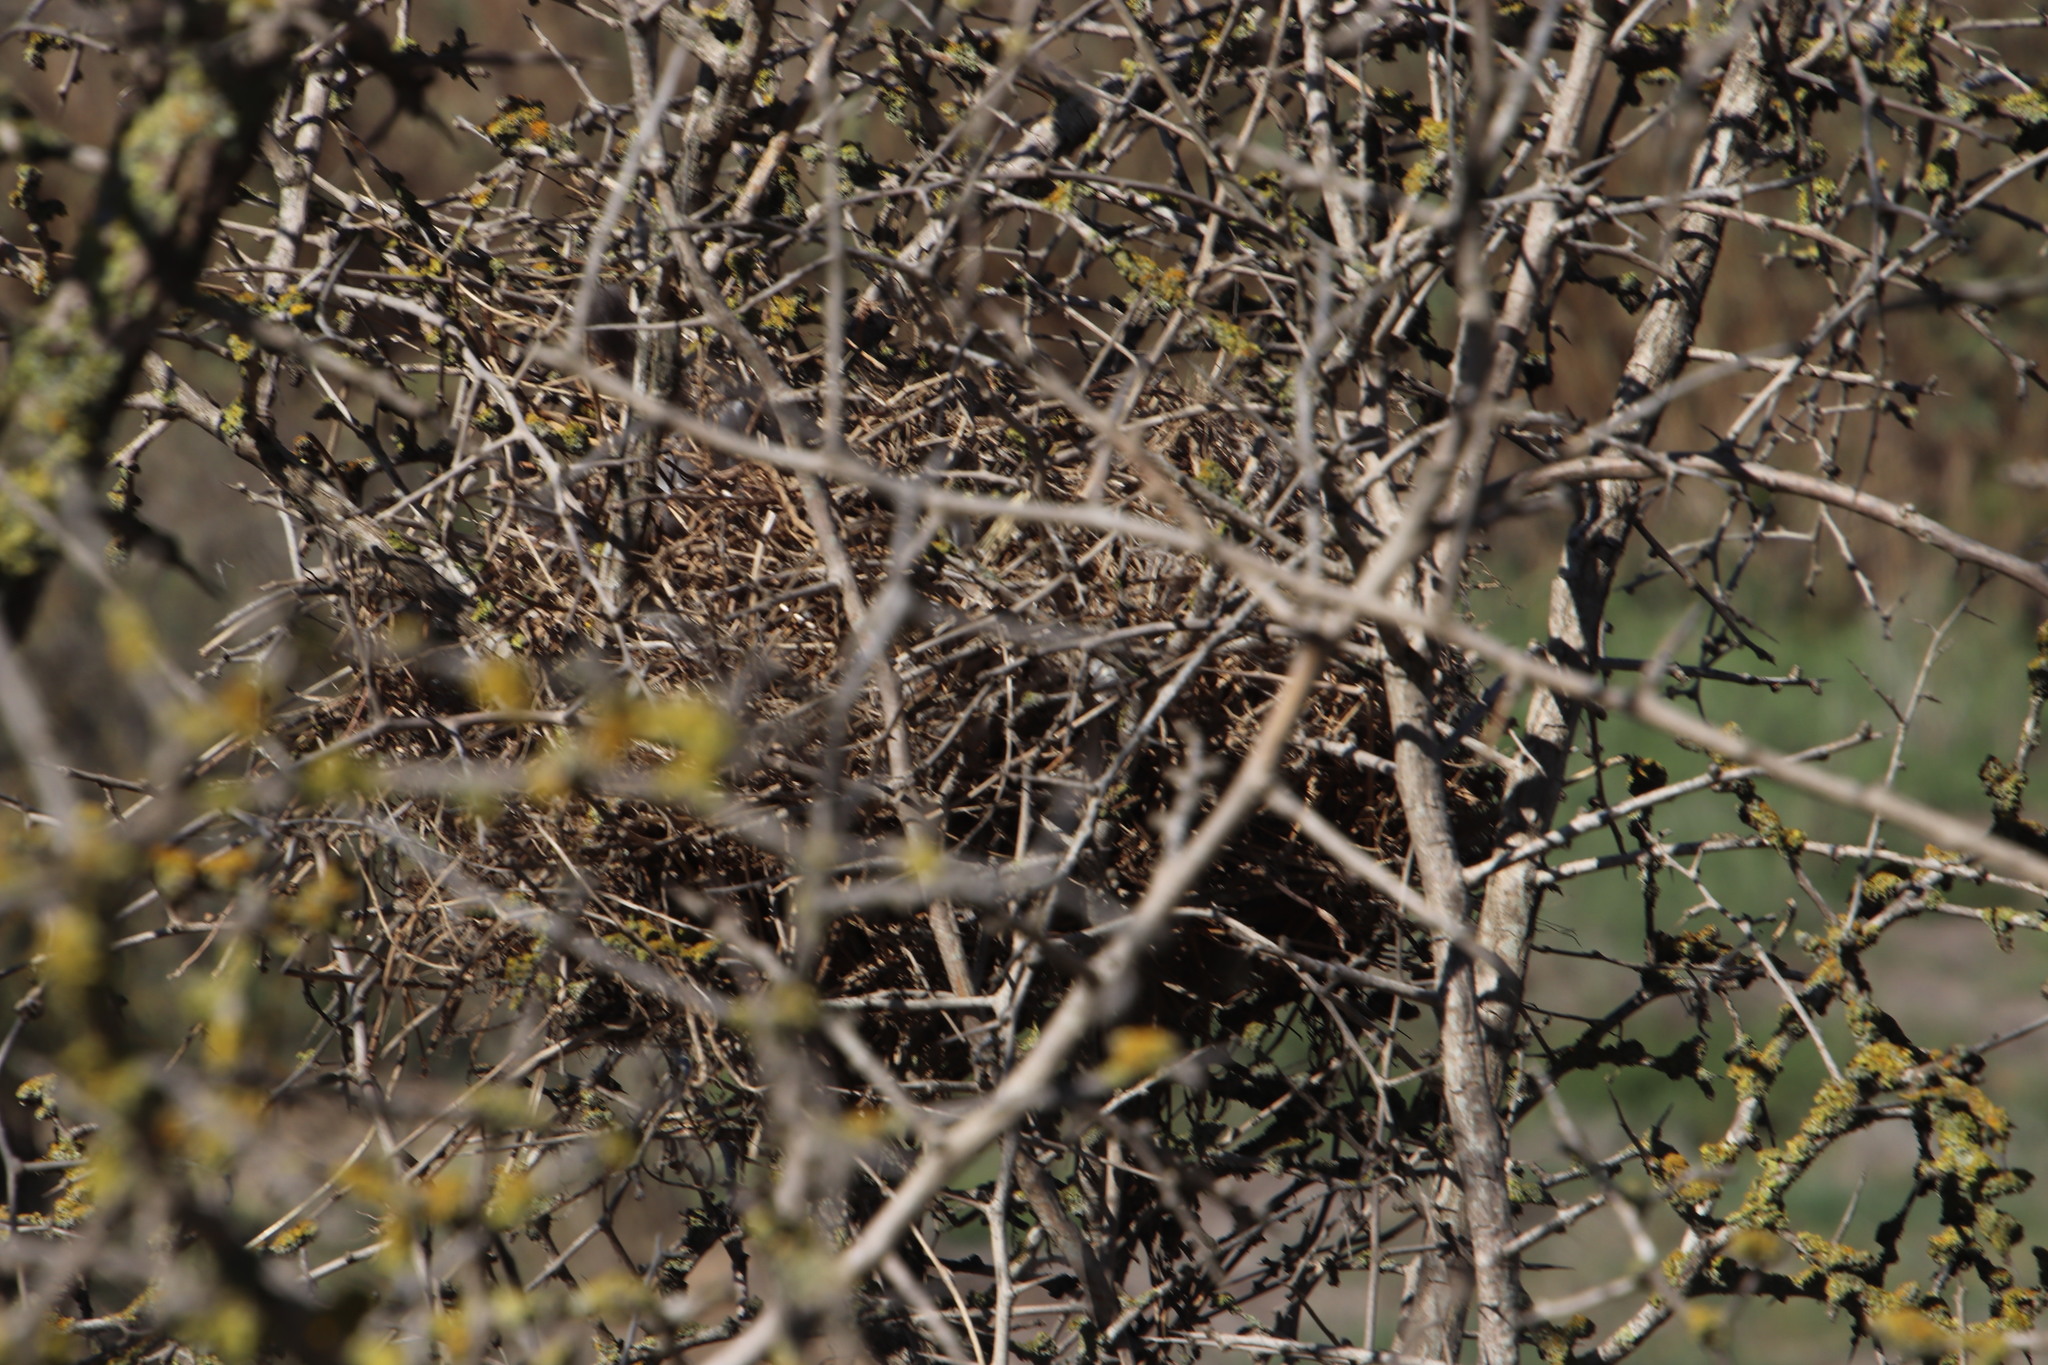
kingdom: Animalia
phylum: Chordata
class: Aves
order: Passeriformes
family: Passeridae
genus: Passer
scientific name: Passer melanurus
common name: Cape sparrow
